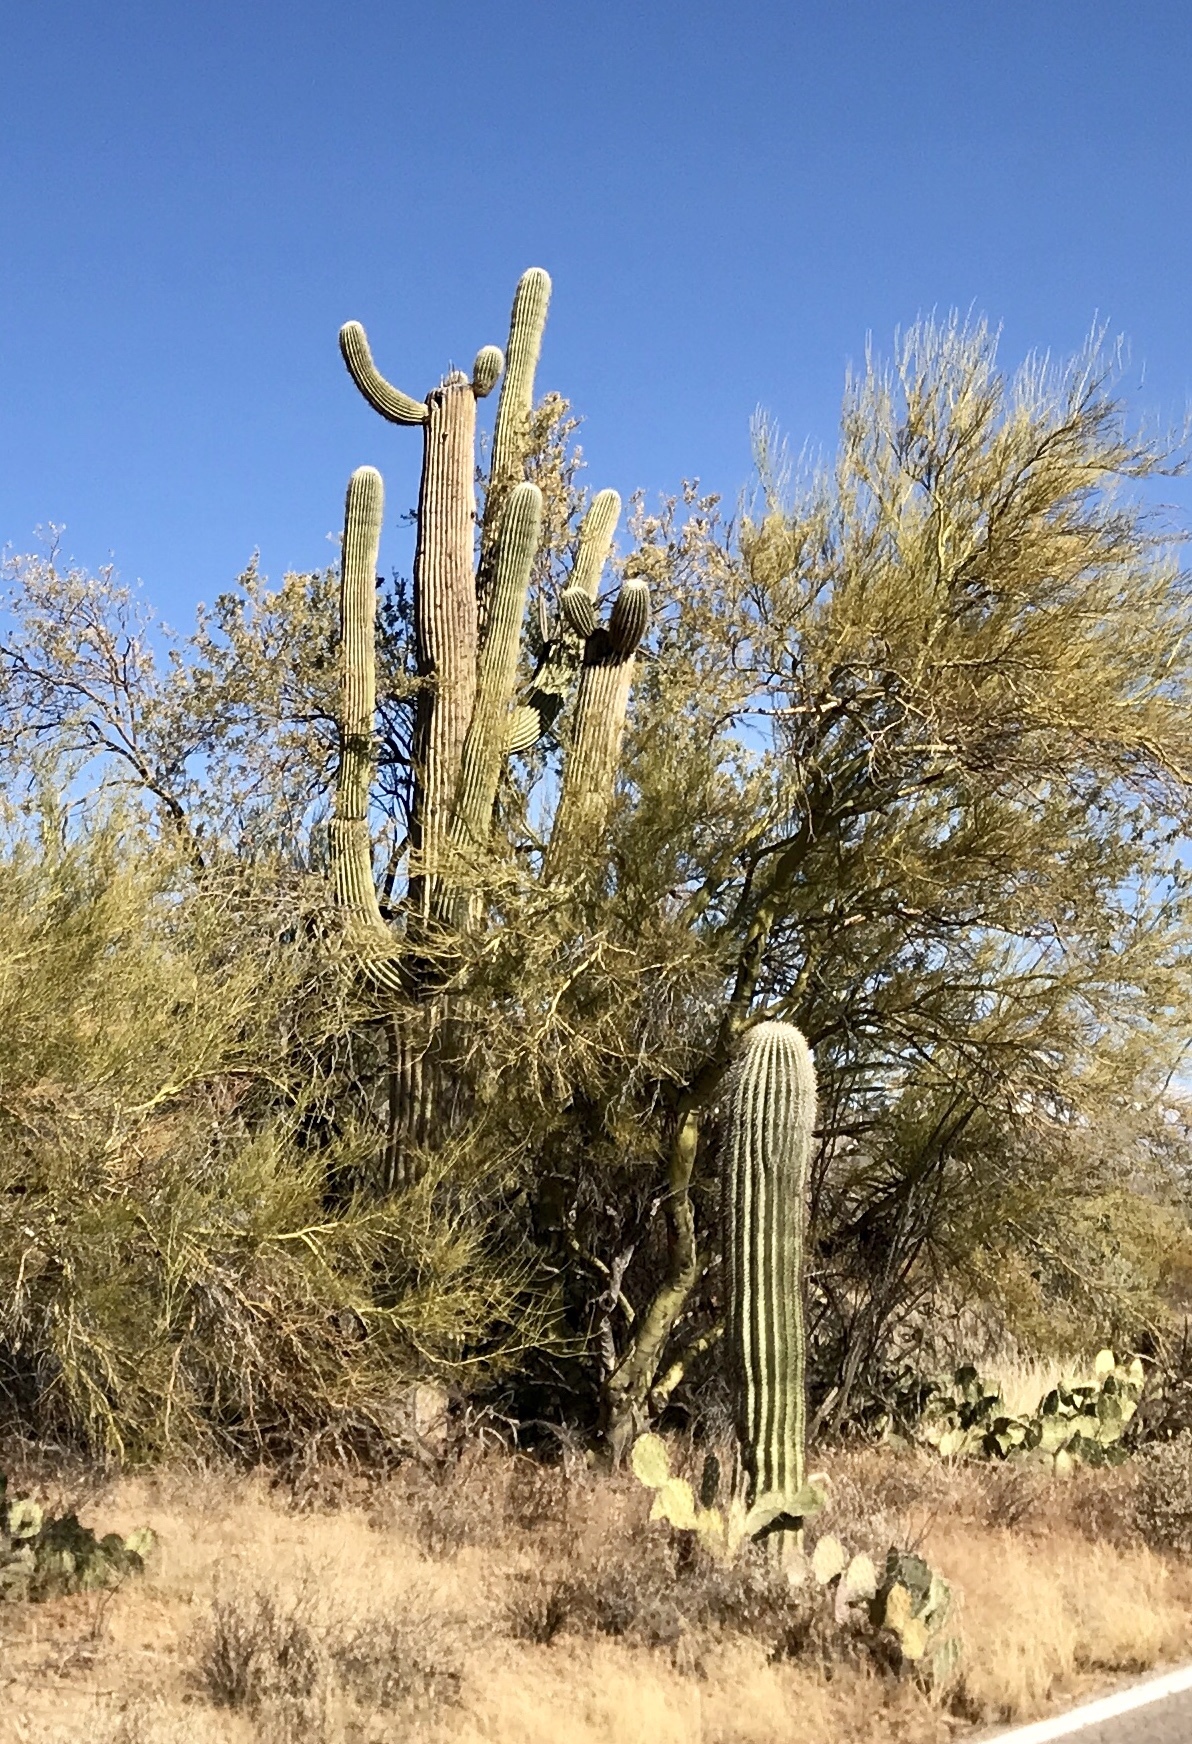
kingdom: Plantae
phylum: Tracheophyta
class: Magnoliopsida
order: Caryophyllales
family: Cactaceae
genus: Carnegiea
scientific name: Carnegiea gigantea
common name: Saguaro
